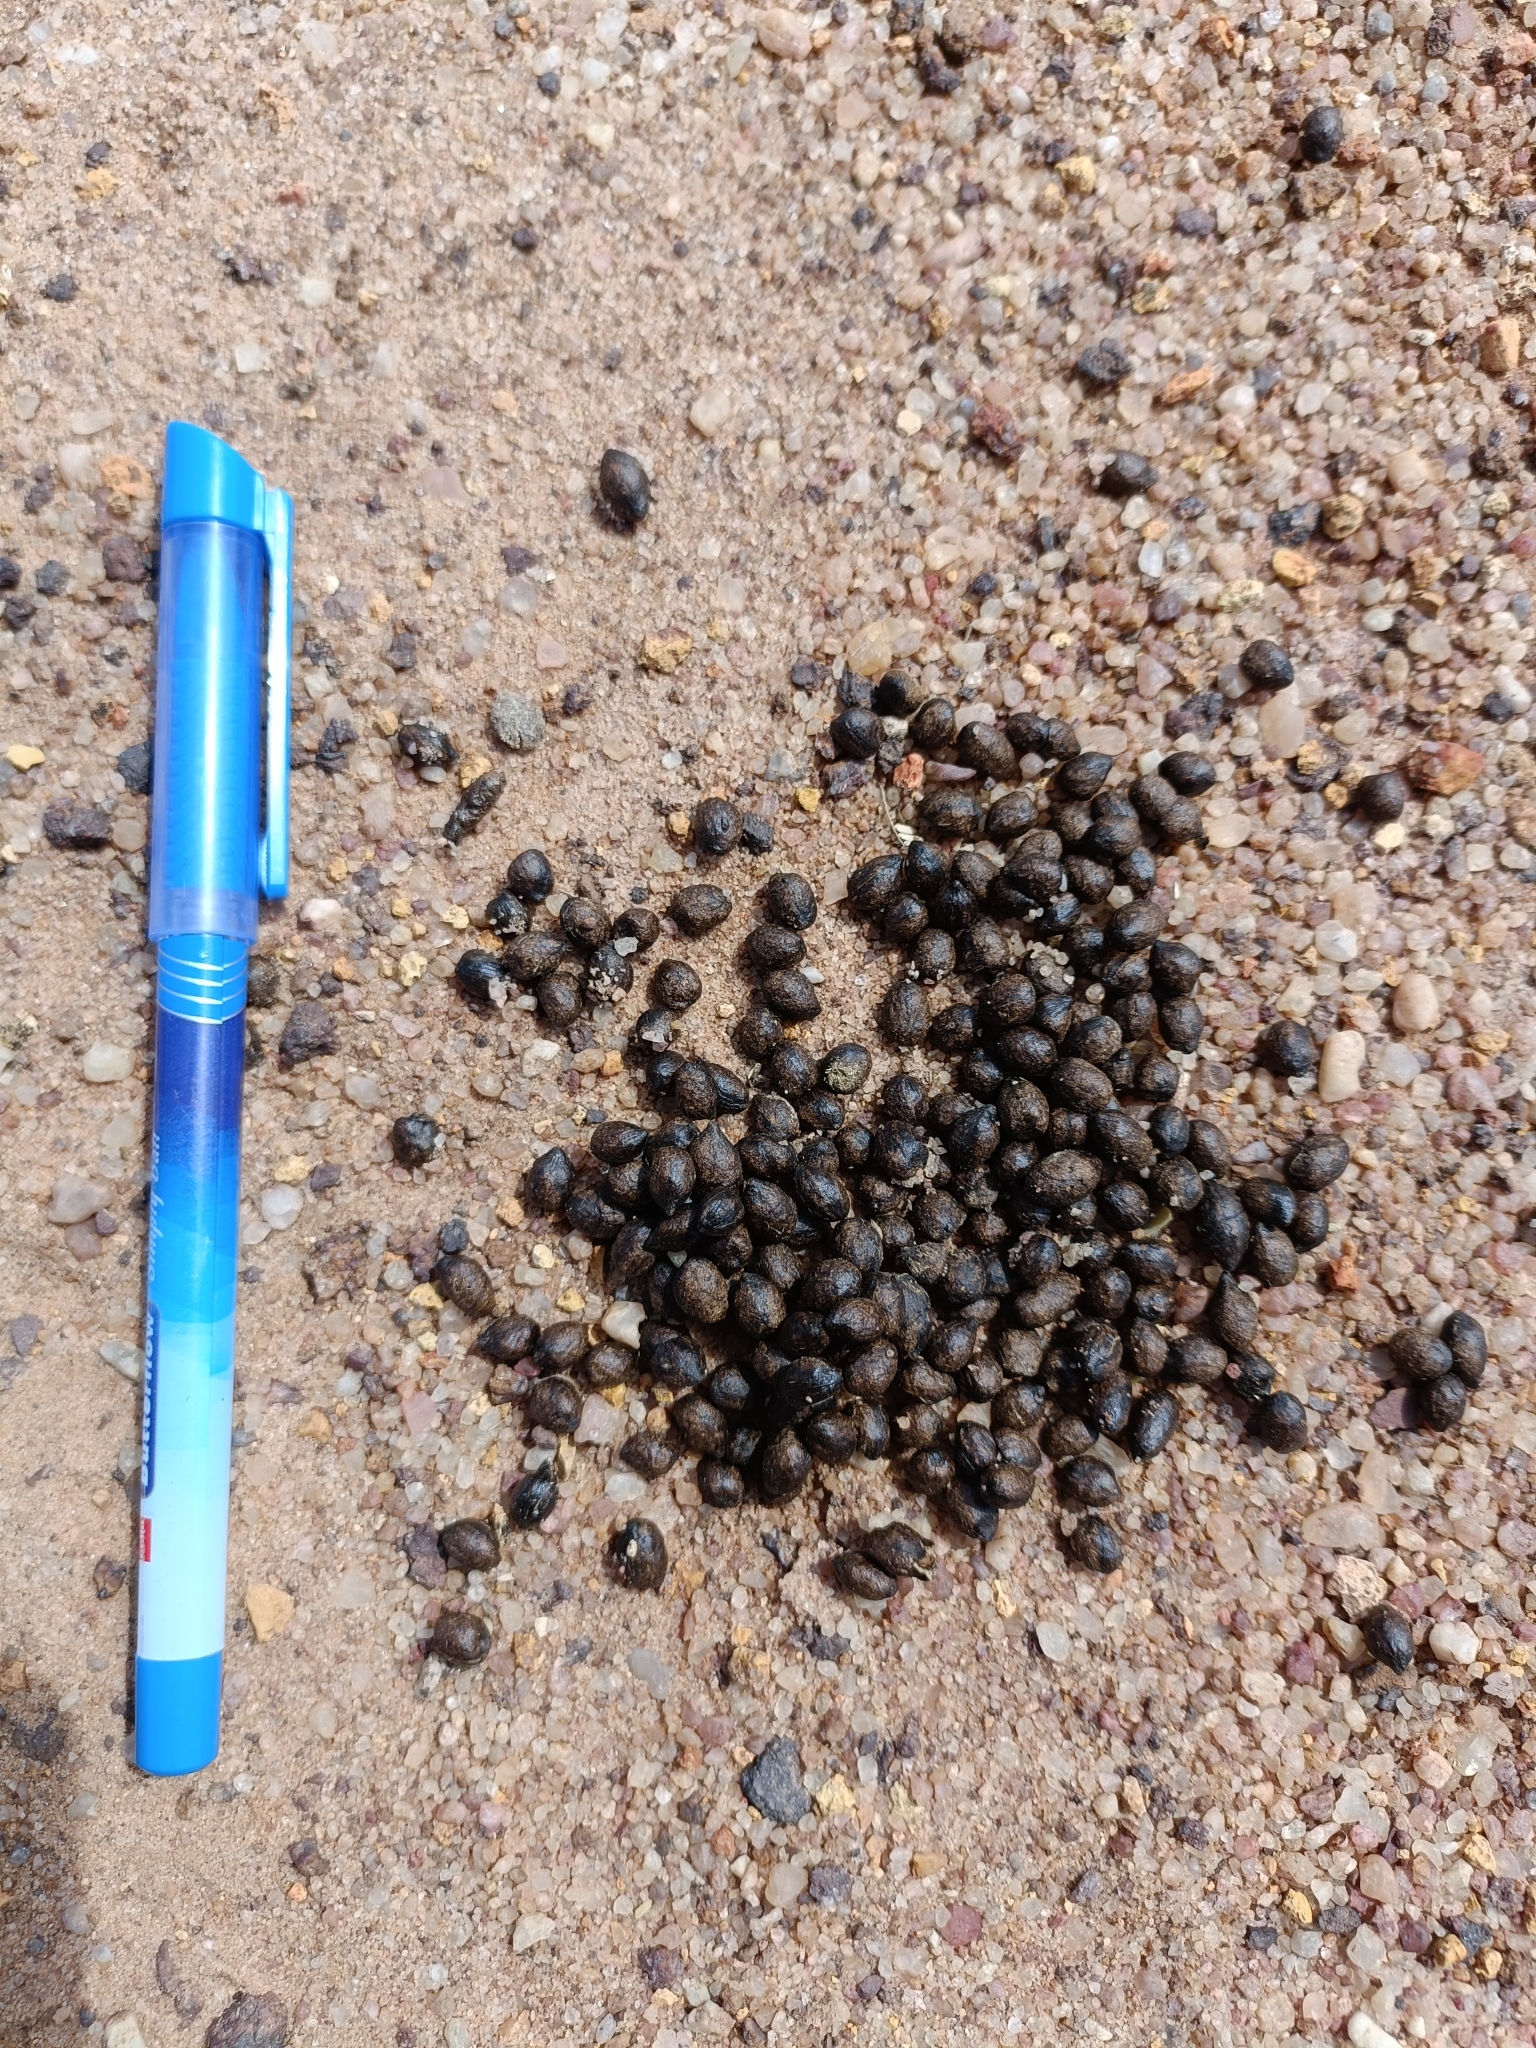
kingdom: Animalia
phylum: Chordata
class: Mammalia
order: Artiodactyla
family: Bovidae
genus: Gazella
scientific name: Gazella bennettii
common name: Indian gazelle
